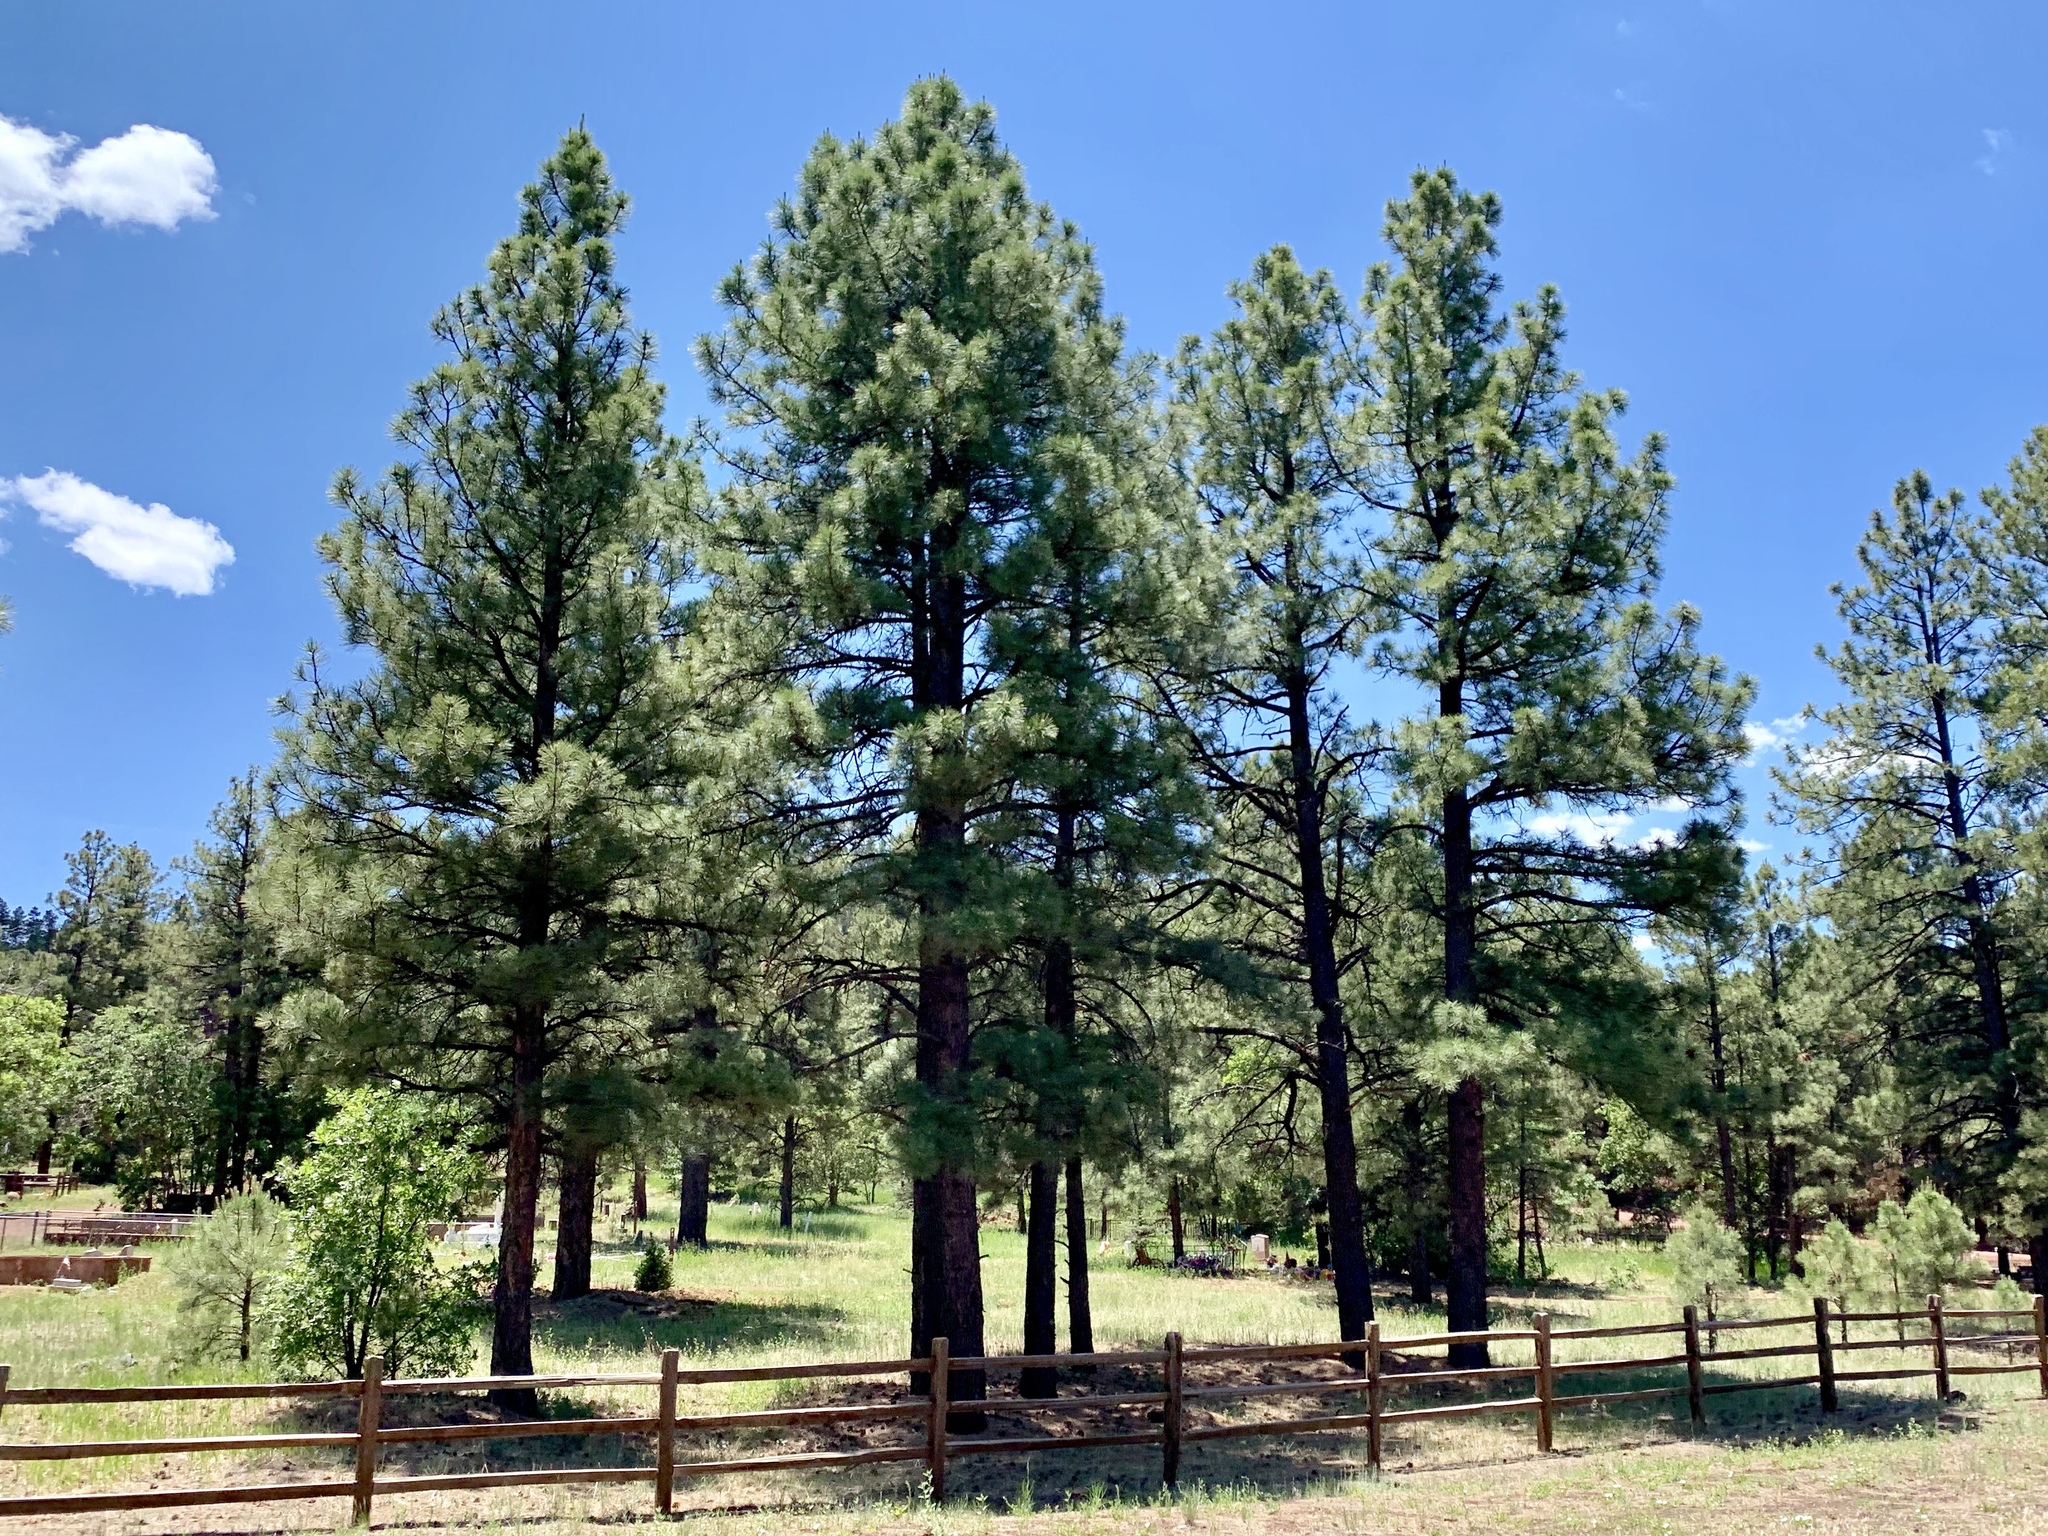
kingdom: Plantae
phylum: Tracheophyta
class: Pinopsida
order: Pinales
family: Pinaceae
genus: Pinus
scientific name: Pinus ponderosa
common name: Western yellow-pine
